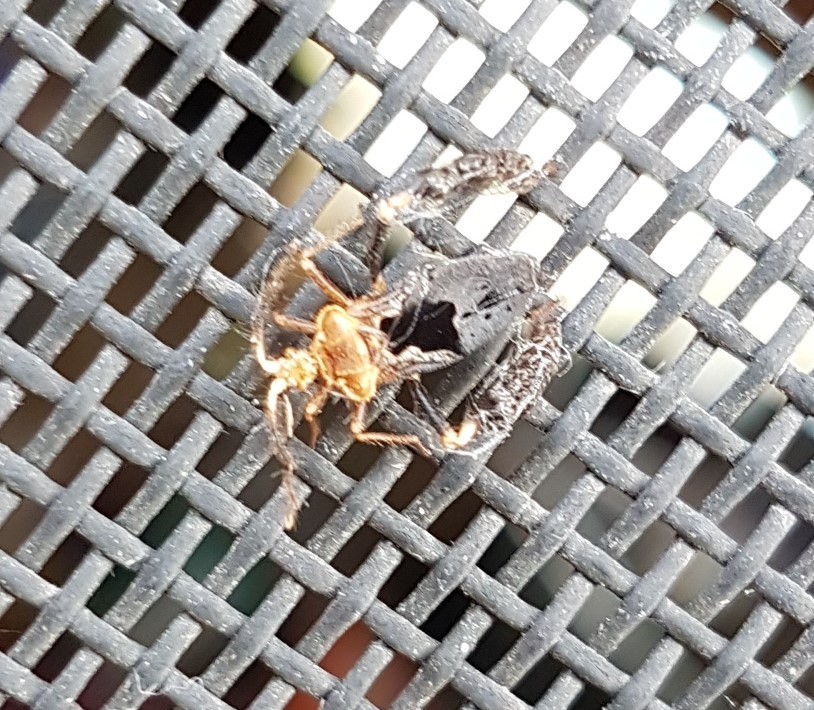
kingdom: Animalia
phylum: Arthropoda
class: Insecta
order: Hemiptera
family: Reduviidae
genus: Ptilocnemus
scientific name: Ptilocnemus lemur
